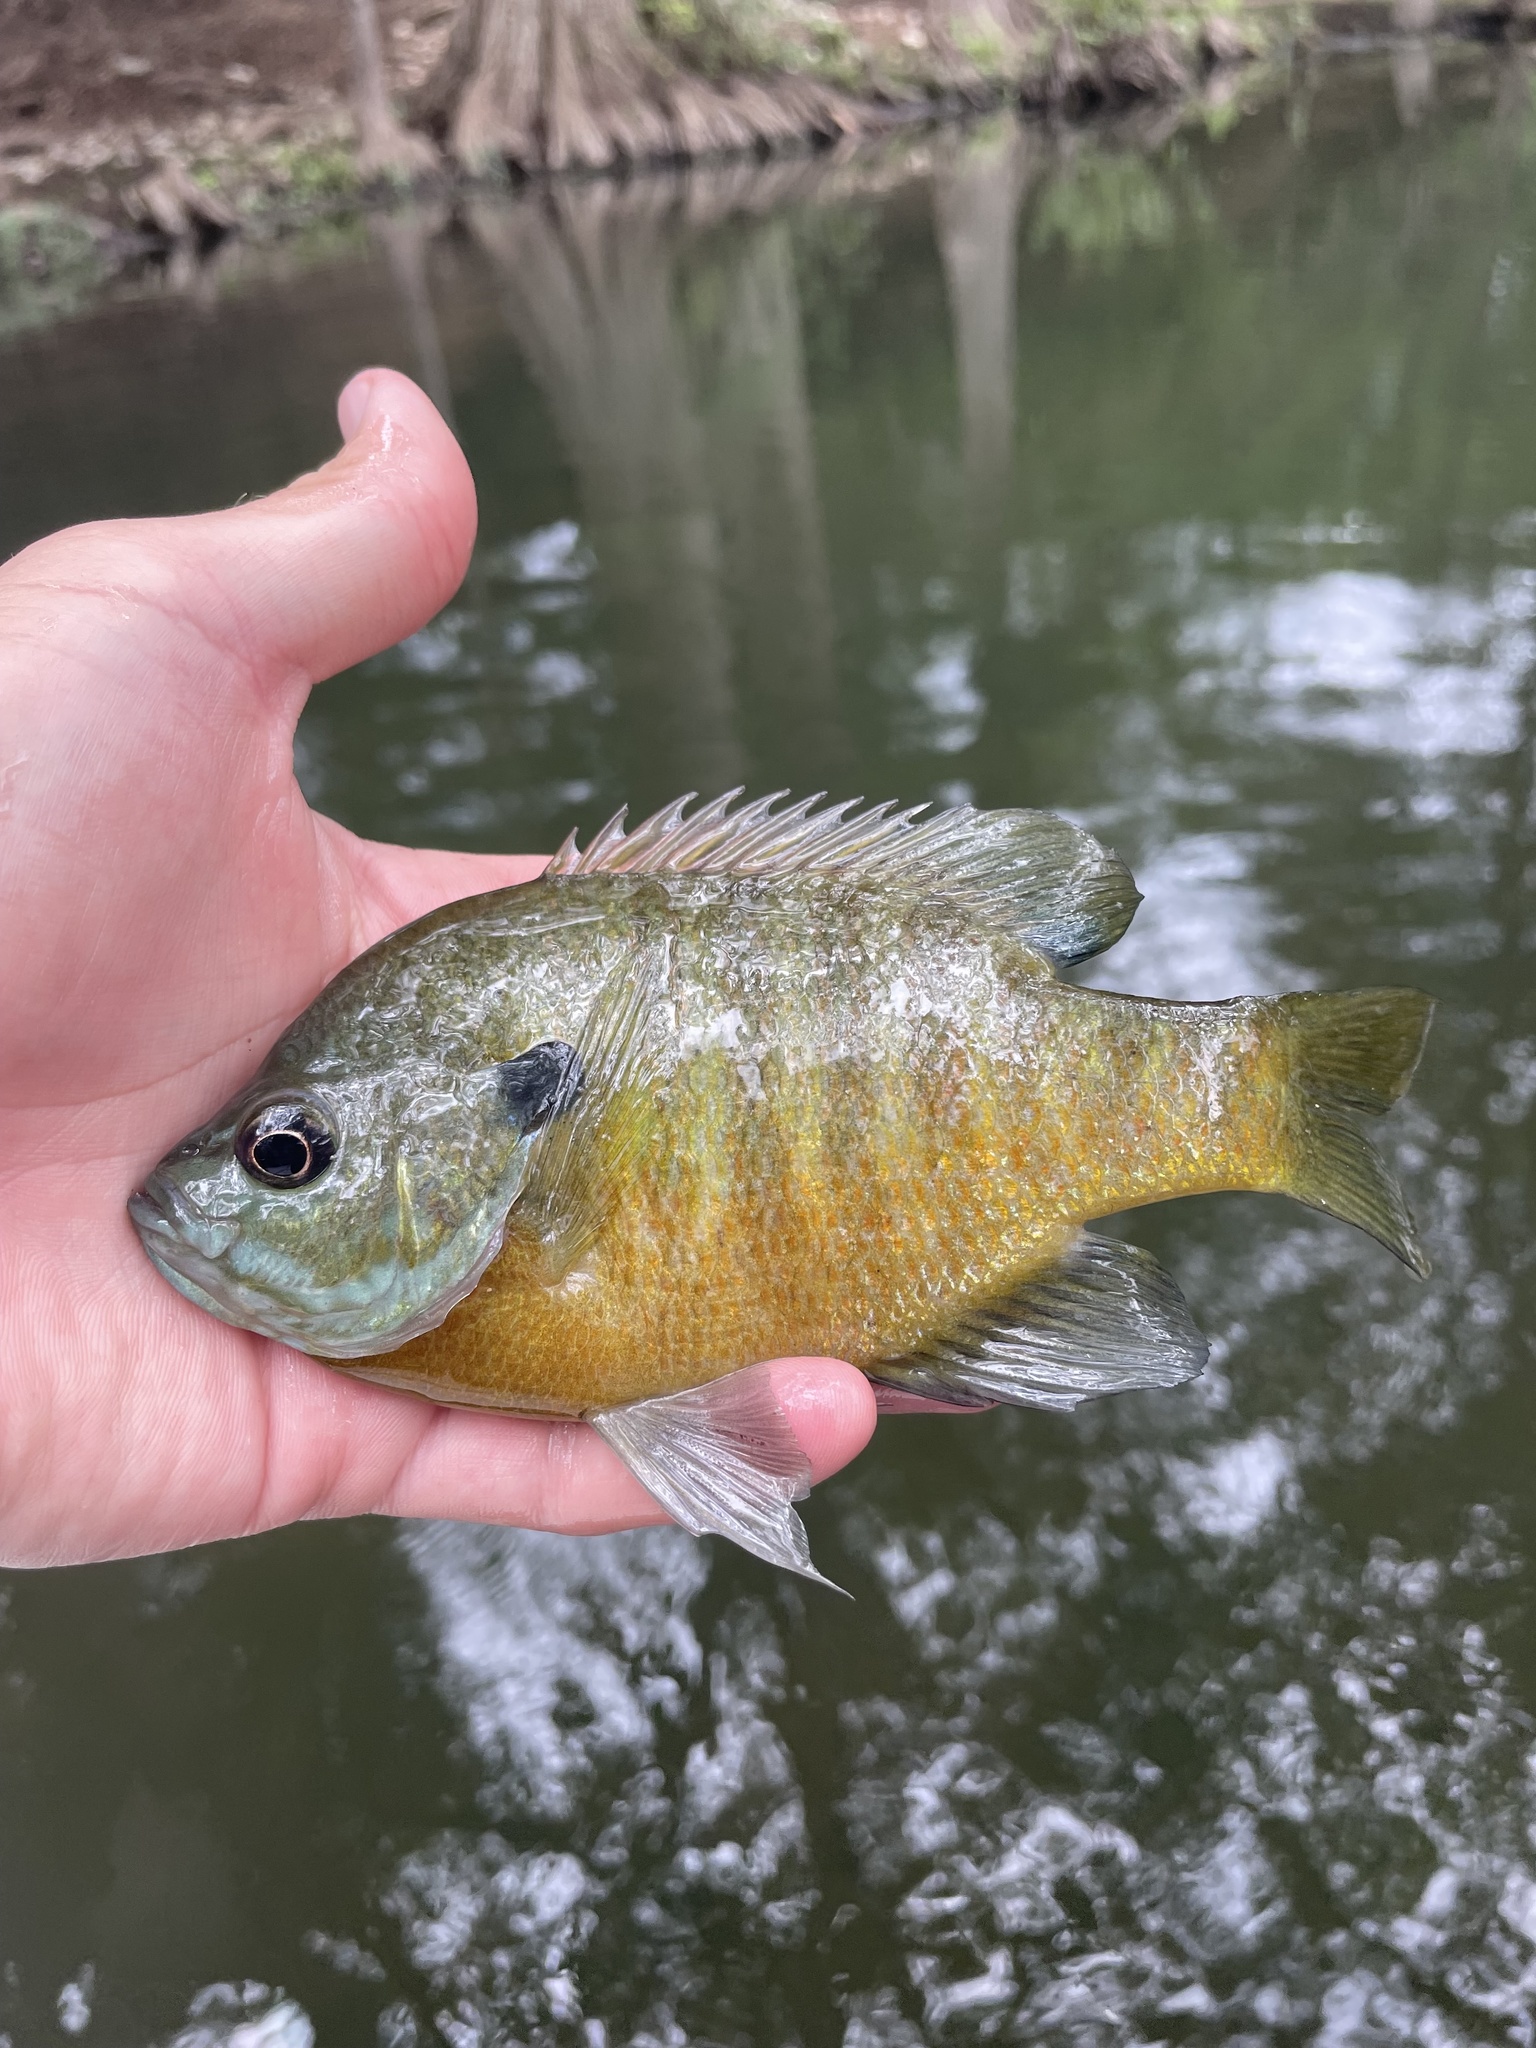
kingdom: Animalia
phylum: Chordata
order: Perciformes
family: Centrarchidae
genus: Lepomis
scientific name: Lepomis macrochirus
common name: Bluegill
